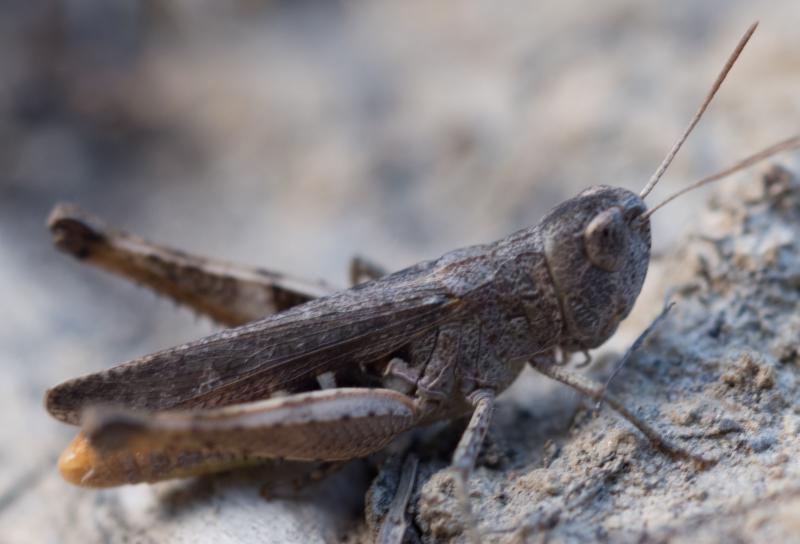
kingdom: Animalia
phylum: Arthropoda
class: Insecta
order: Orthoptera
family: Acrididae
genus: Chorthippus
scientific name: Chorthippus vagans
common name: Heath grasshopper
